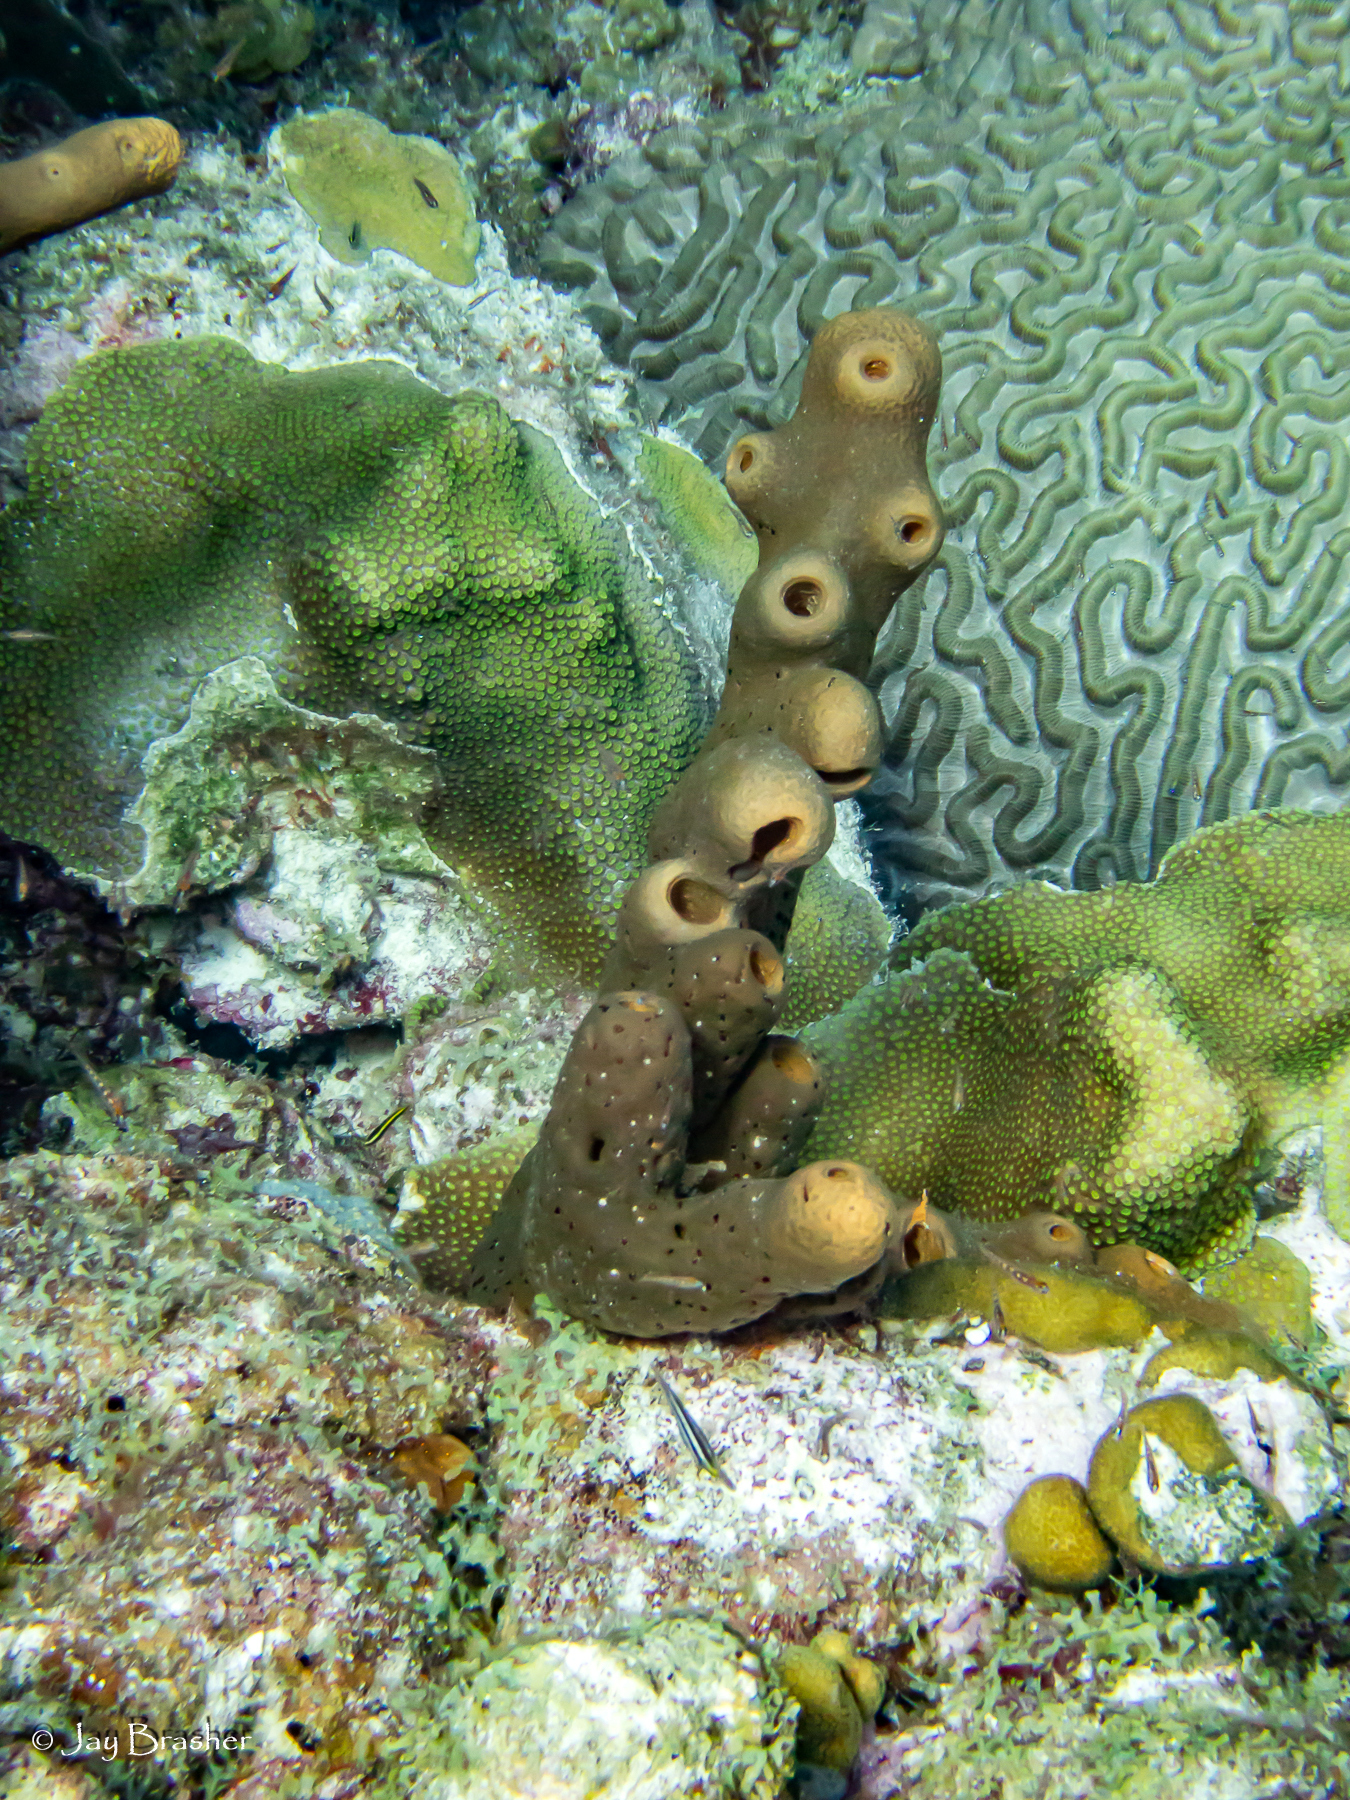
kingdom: Animalia
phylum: Porifera
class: Demospongiae
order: Agelasida
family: Agelasidae
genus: Agelas
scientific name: Agelas conifera
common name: Brown tube sponge
